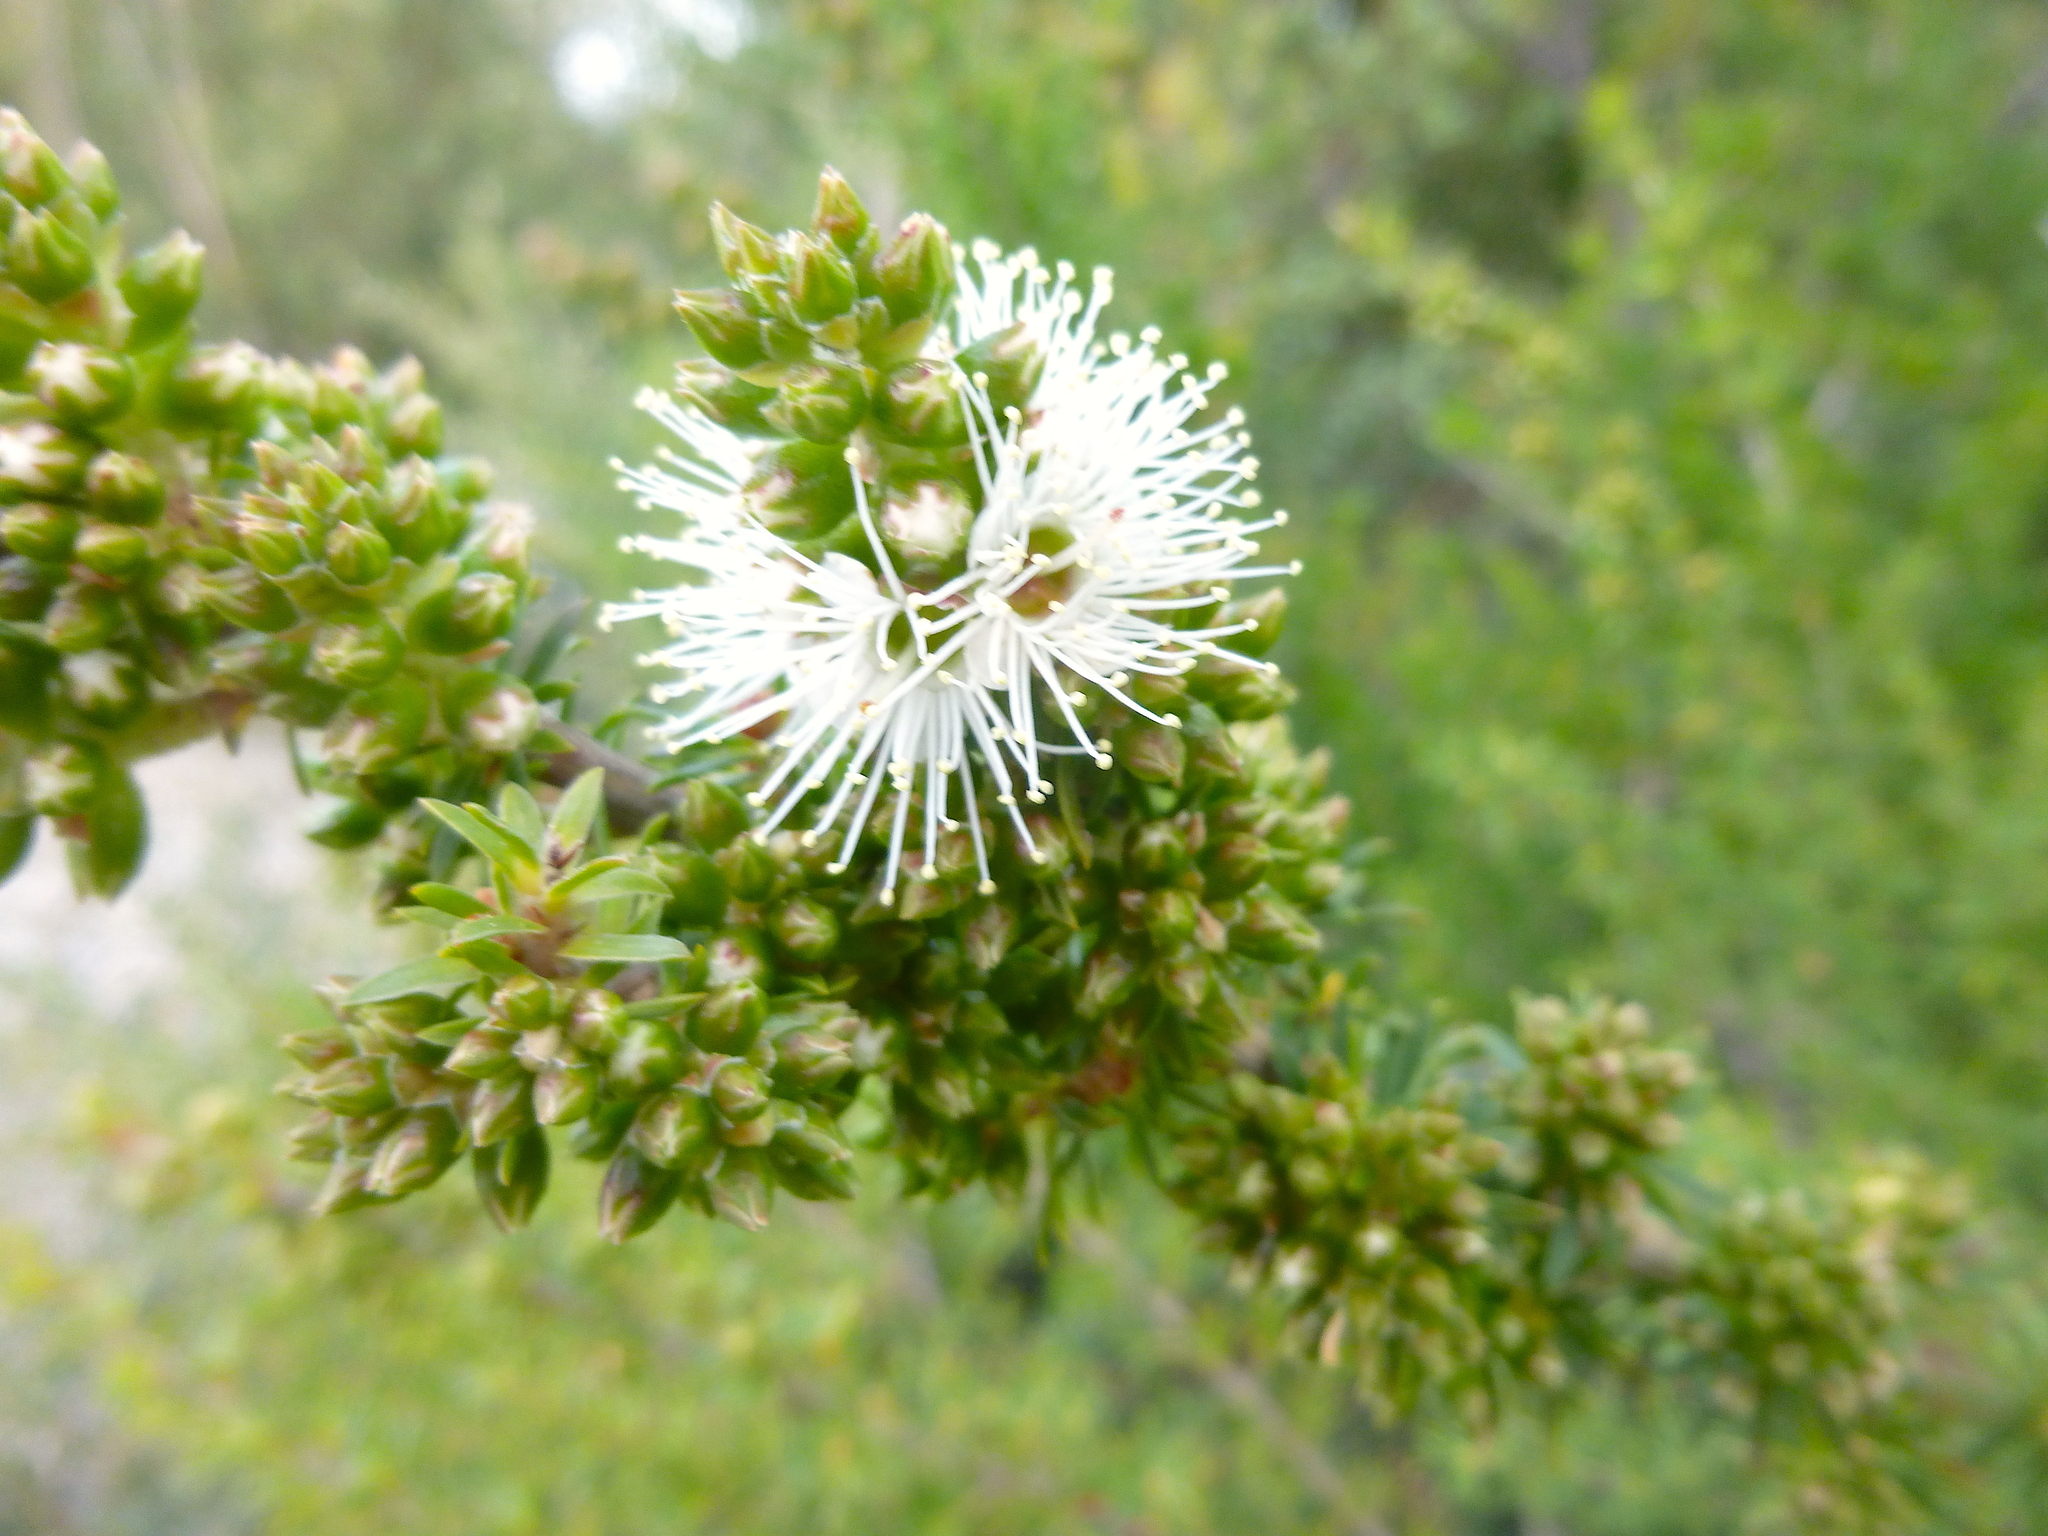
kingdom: Plantae
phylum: Tracheophyta
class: Magnoliopsida
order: Myrtales
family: Myrtaceae
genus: Kunzea
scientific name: Kunzea ambigua
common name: Tickbush
